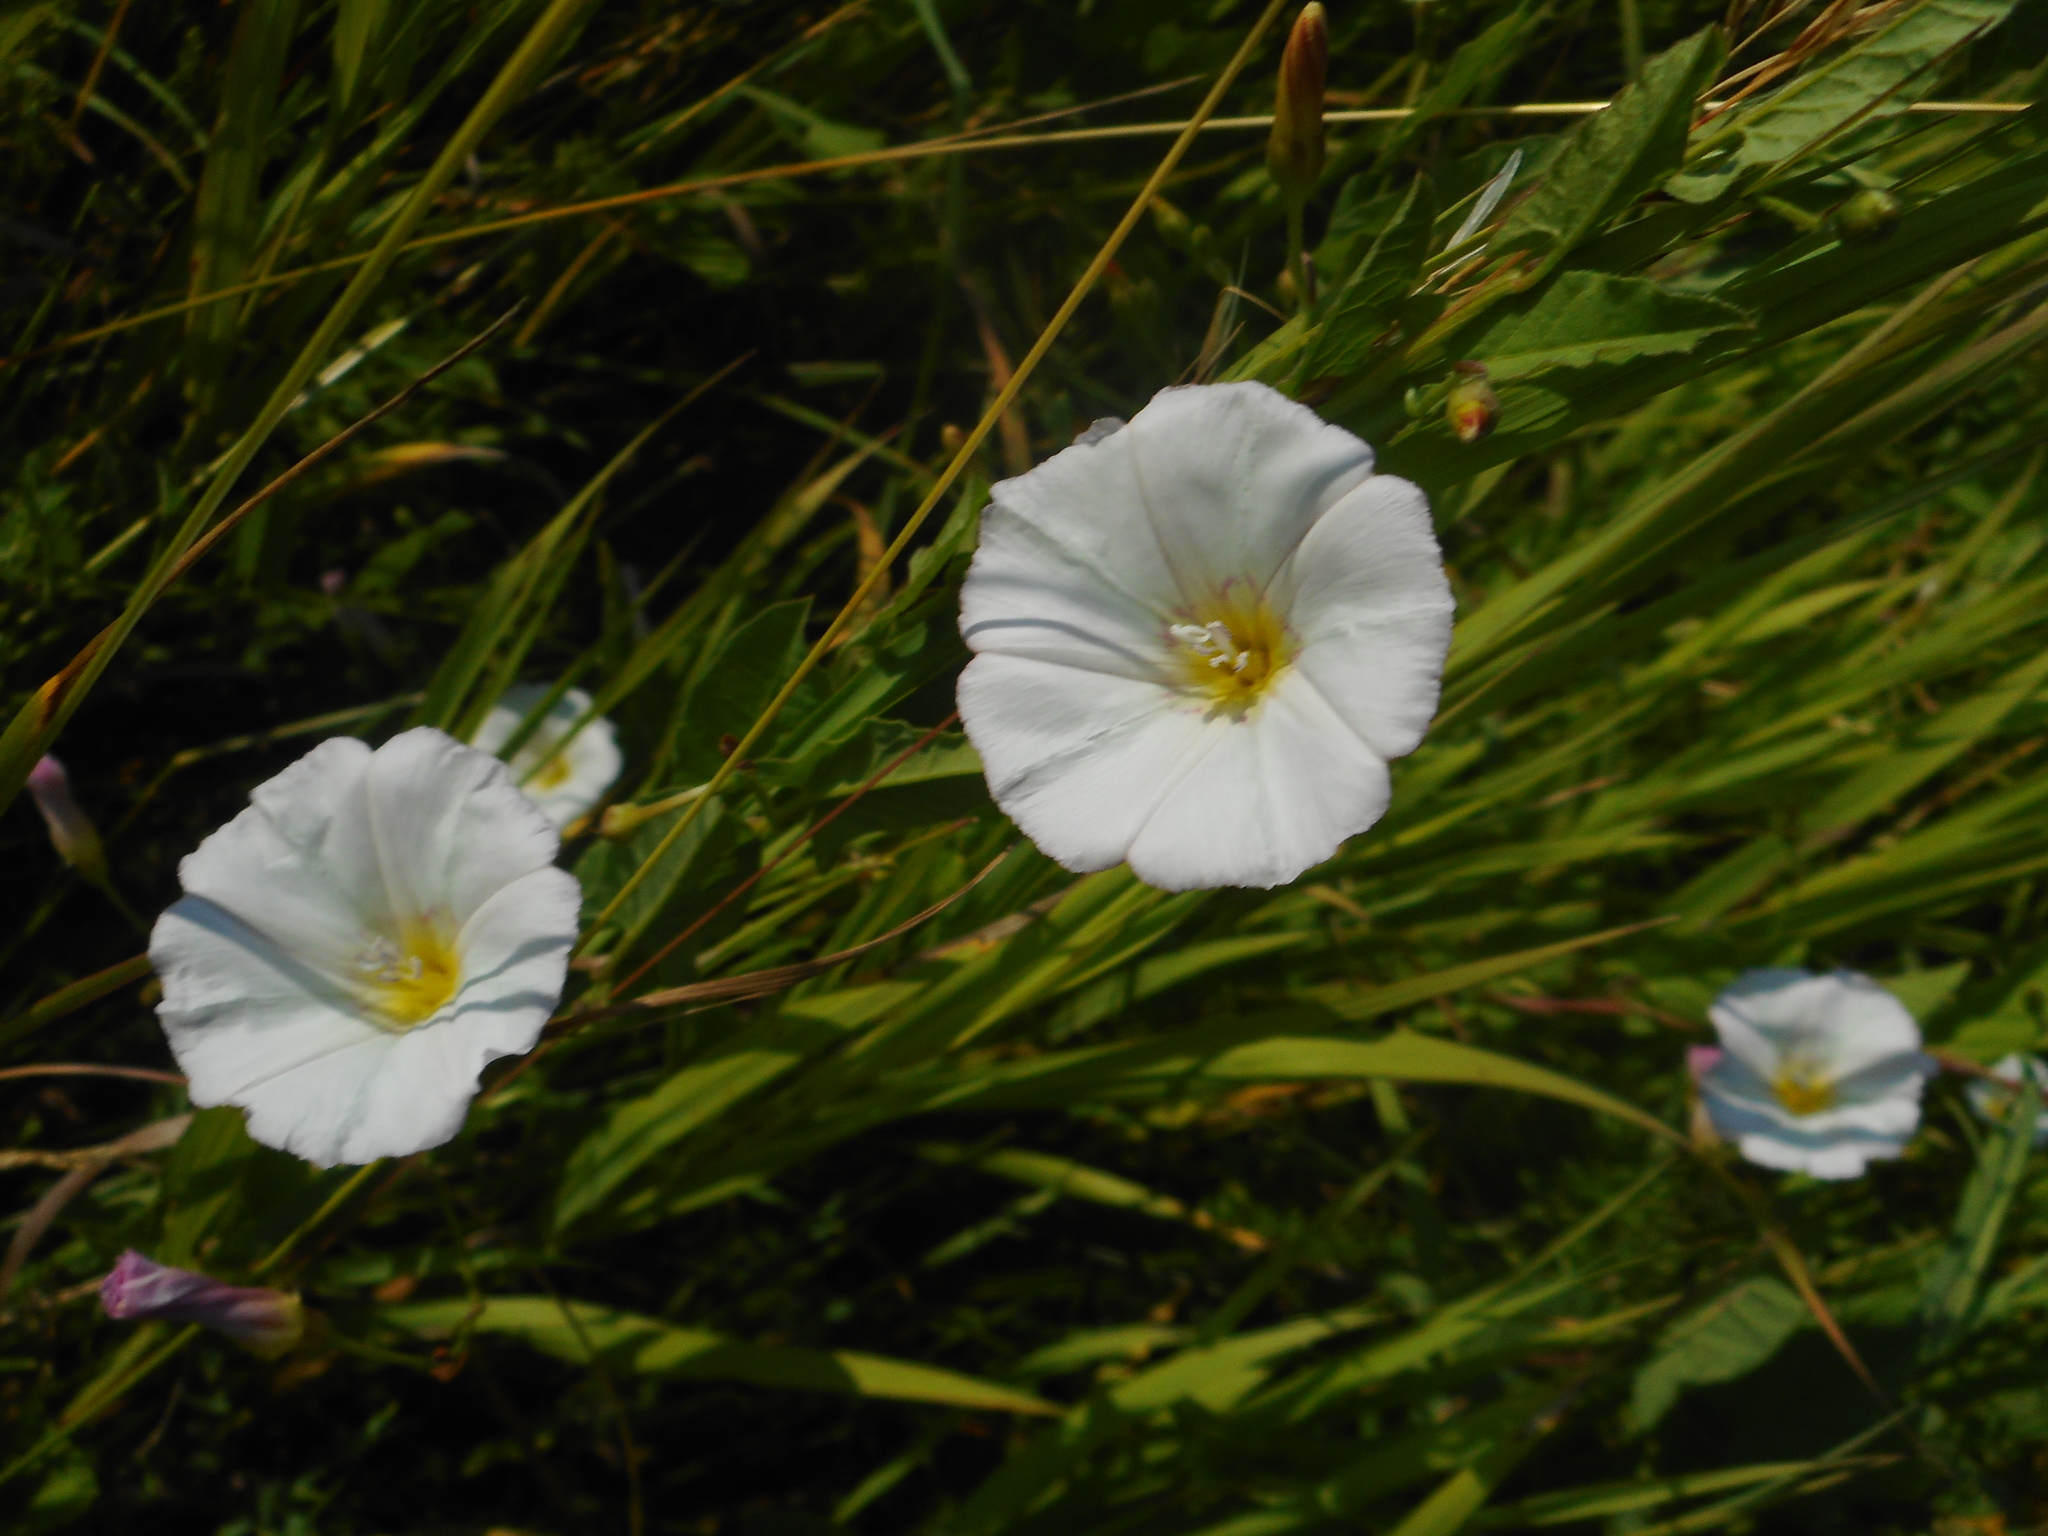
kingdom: Plantae
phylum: Tracheophyta
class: Magnoliopsida
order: Solanales
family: Convolvulaceae
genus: Convolvulus
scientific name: Convolvulus arvensis
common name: Field bindweed
